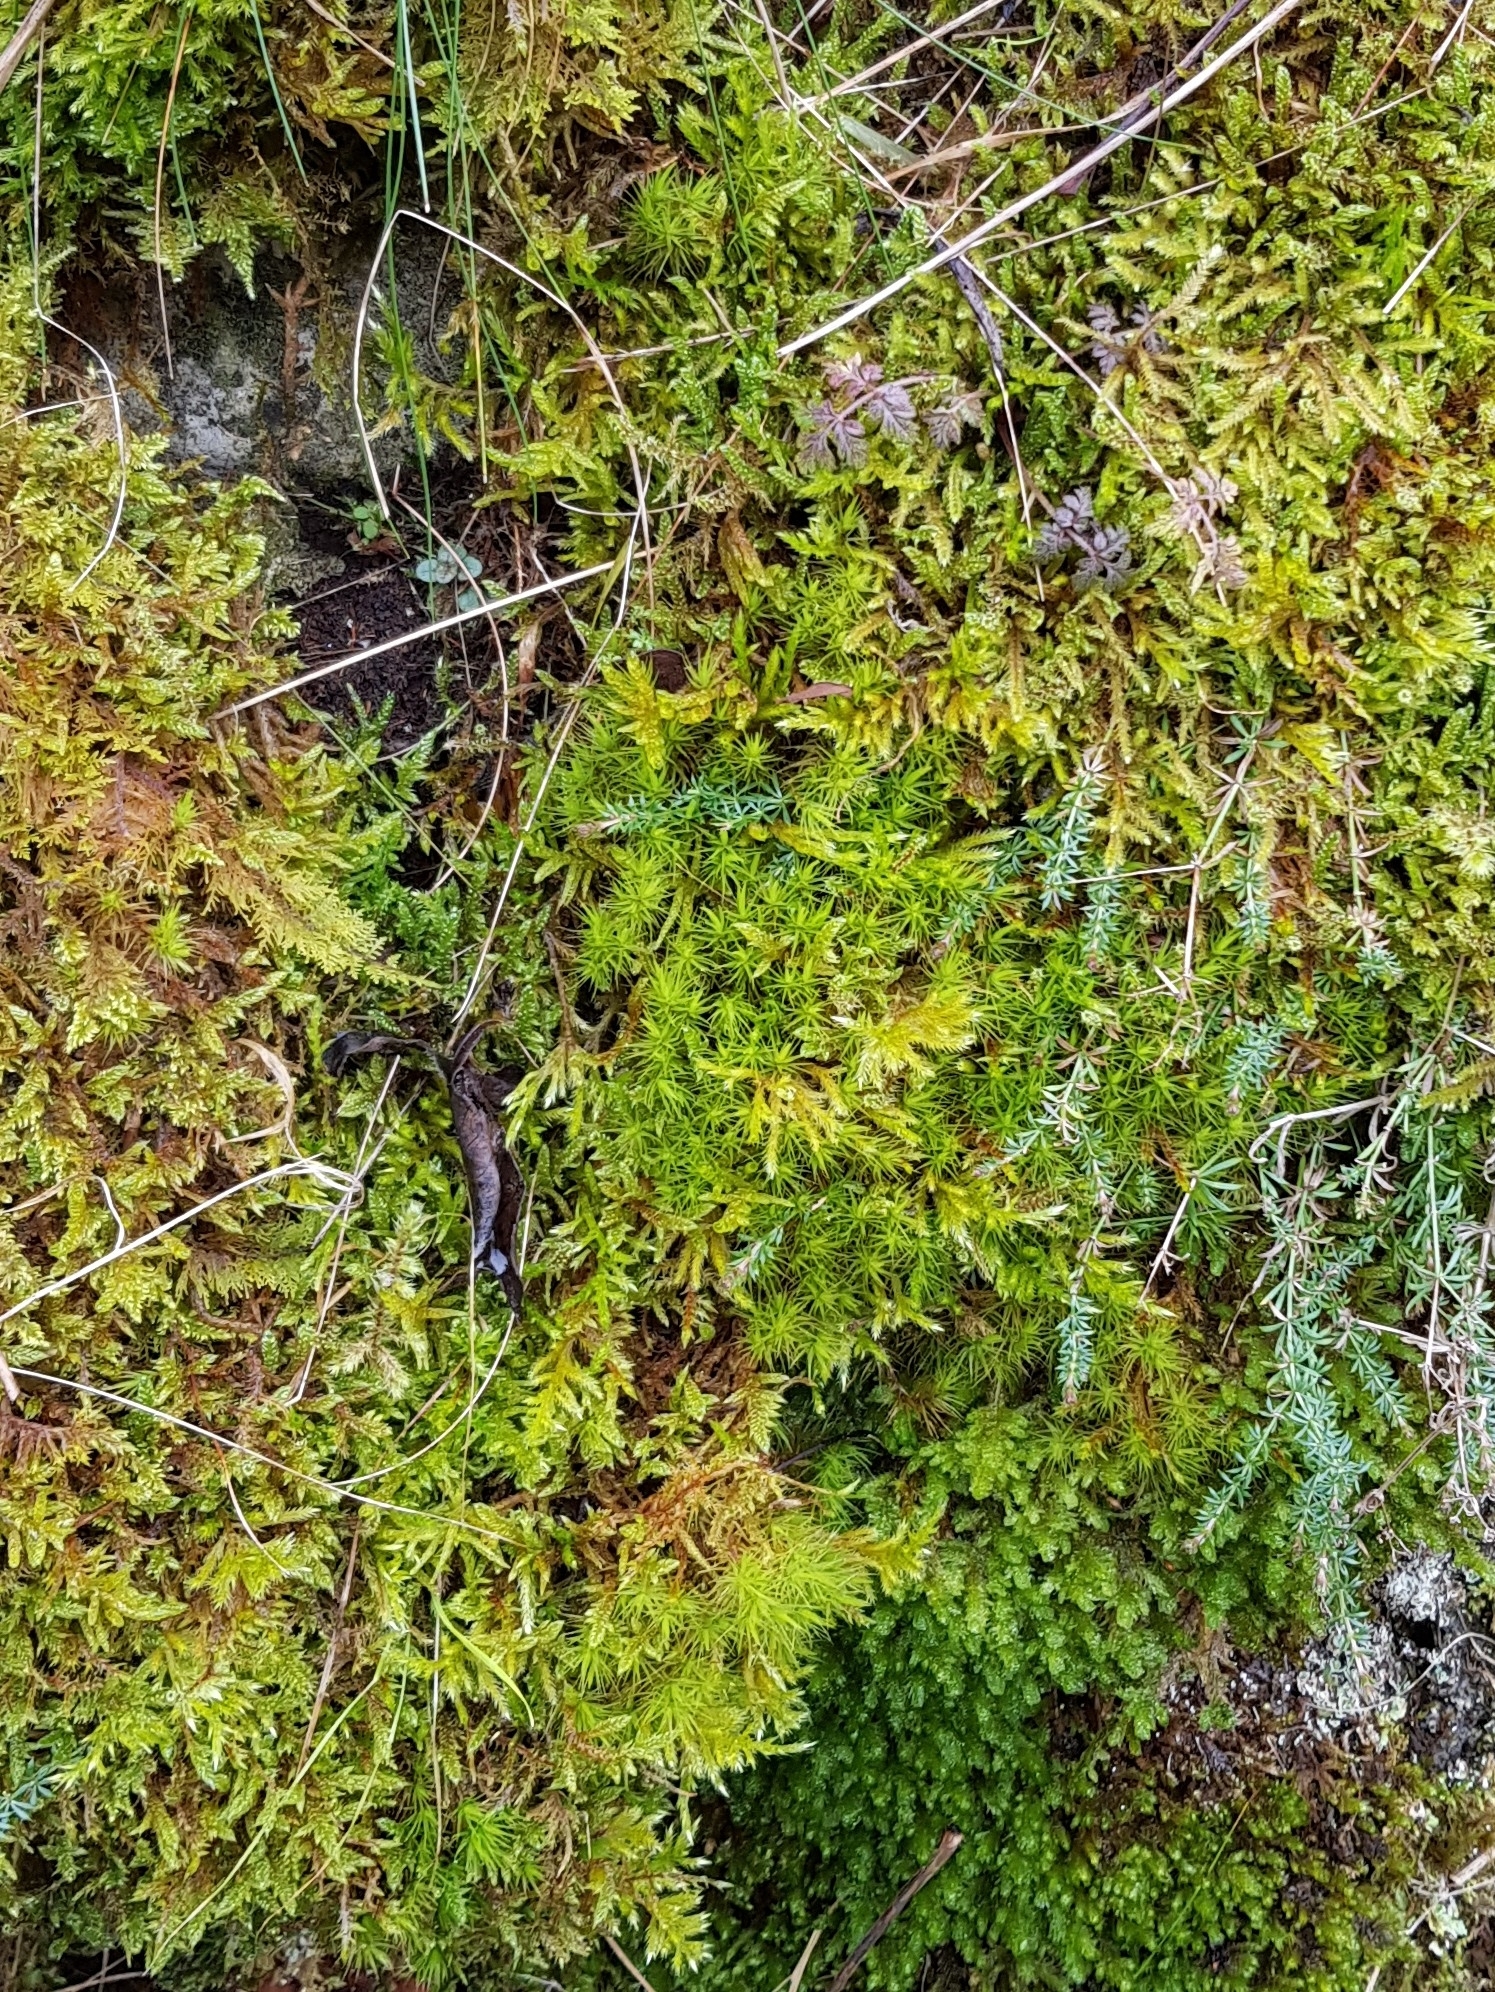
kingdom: Plantae
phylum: Bryophyta
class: Bryopsida
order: Dicranales
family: Dicranaceae
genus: Dicranum
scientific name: Dicranum scoparium
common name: Broom fork-moss
